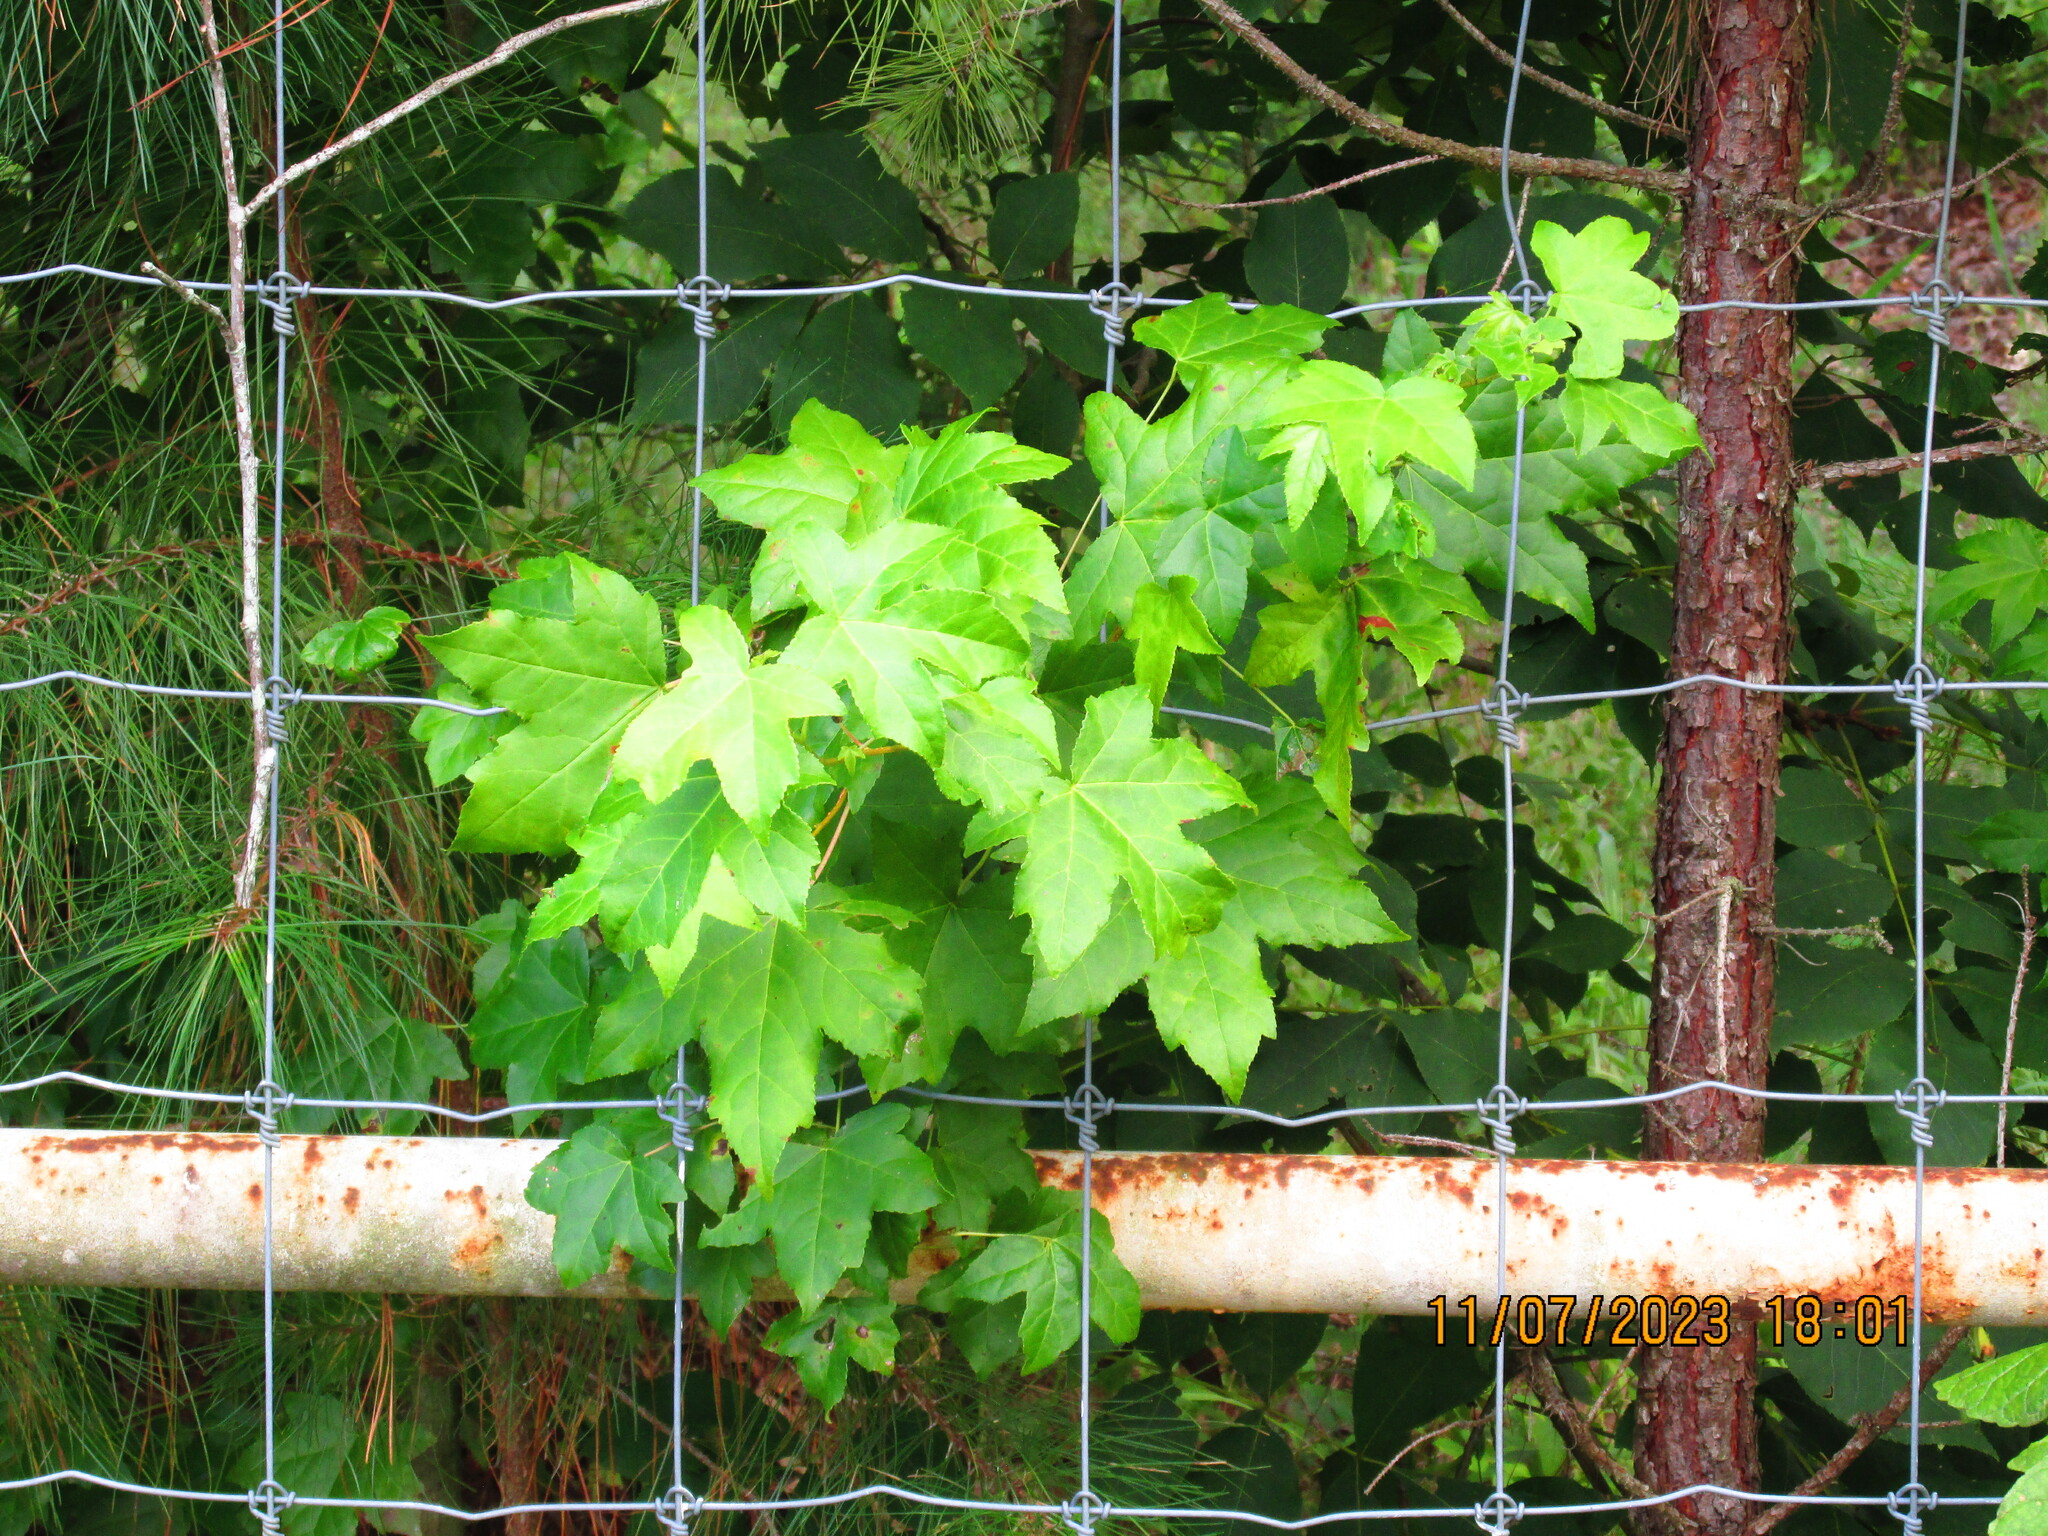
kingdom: Plantae
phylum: Tracheophyta
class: Magnoliopsida
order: Saxifragales
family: Altingiaceae
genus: Liquidambar
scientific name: Liquidambar styraciflua
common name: Sweet gum
